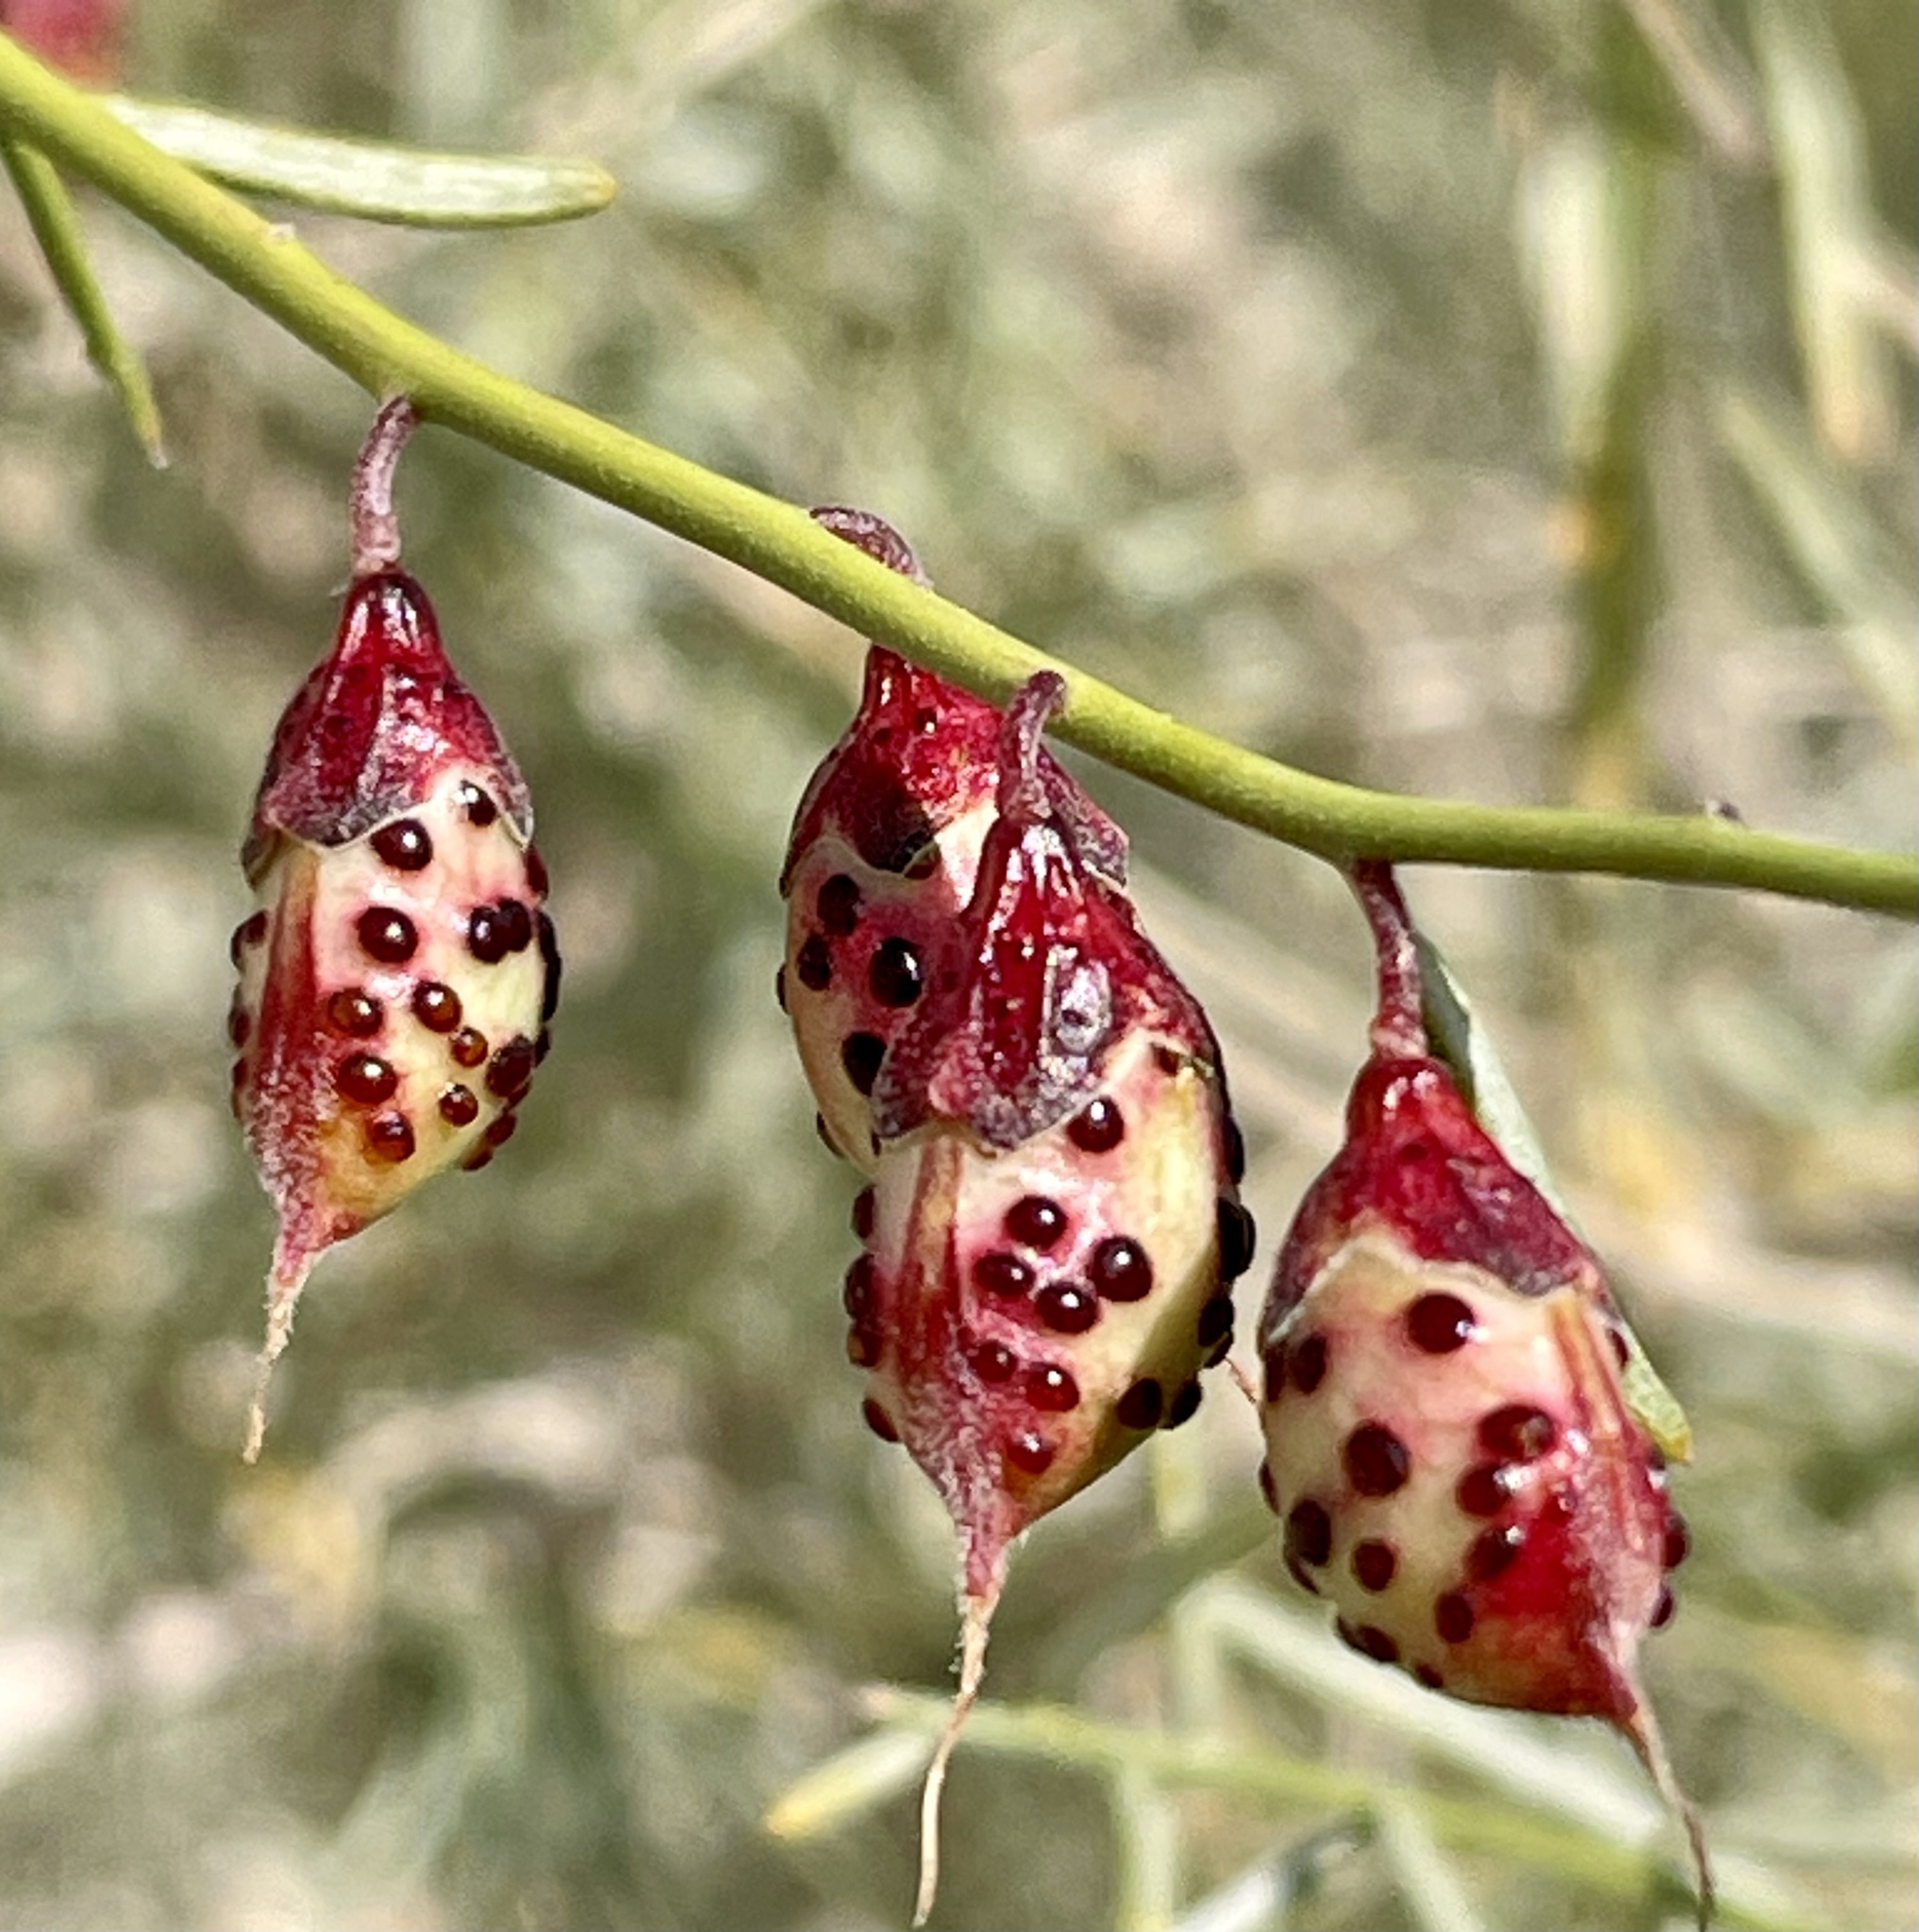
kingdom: Plantae
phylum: Tracheophyta
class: Magnoliopsida
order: Fabales
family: Fabaceae
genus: Psorothamnus
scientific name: Psorothamnus schottii
